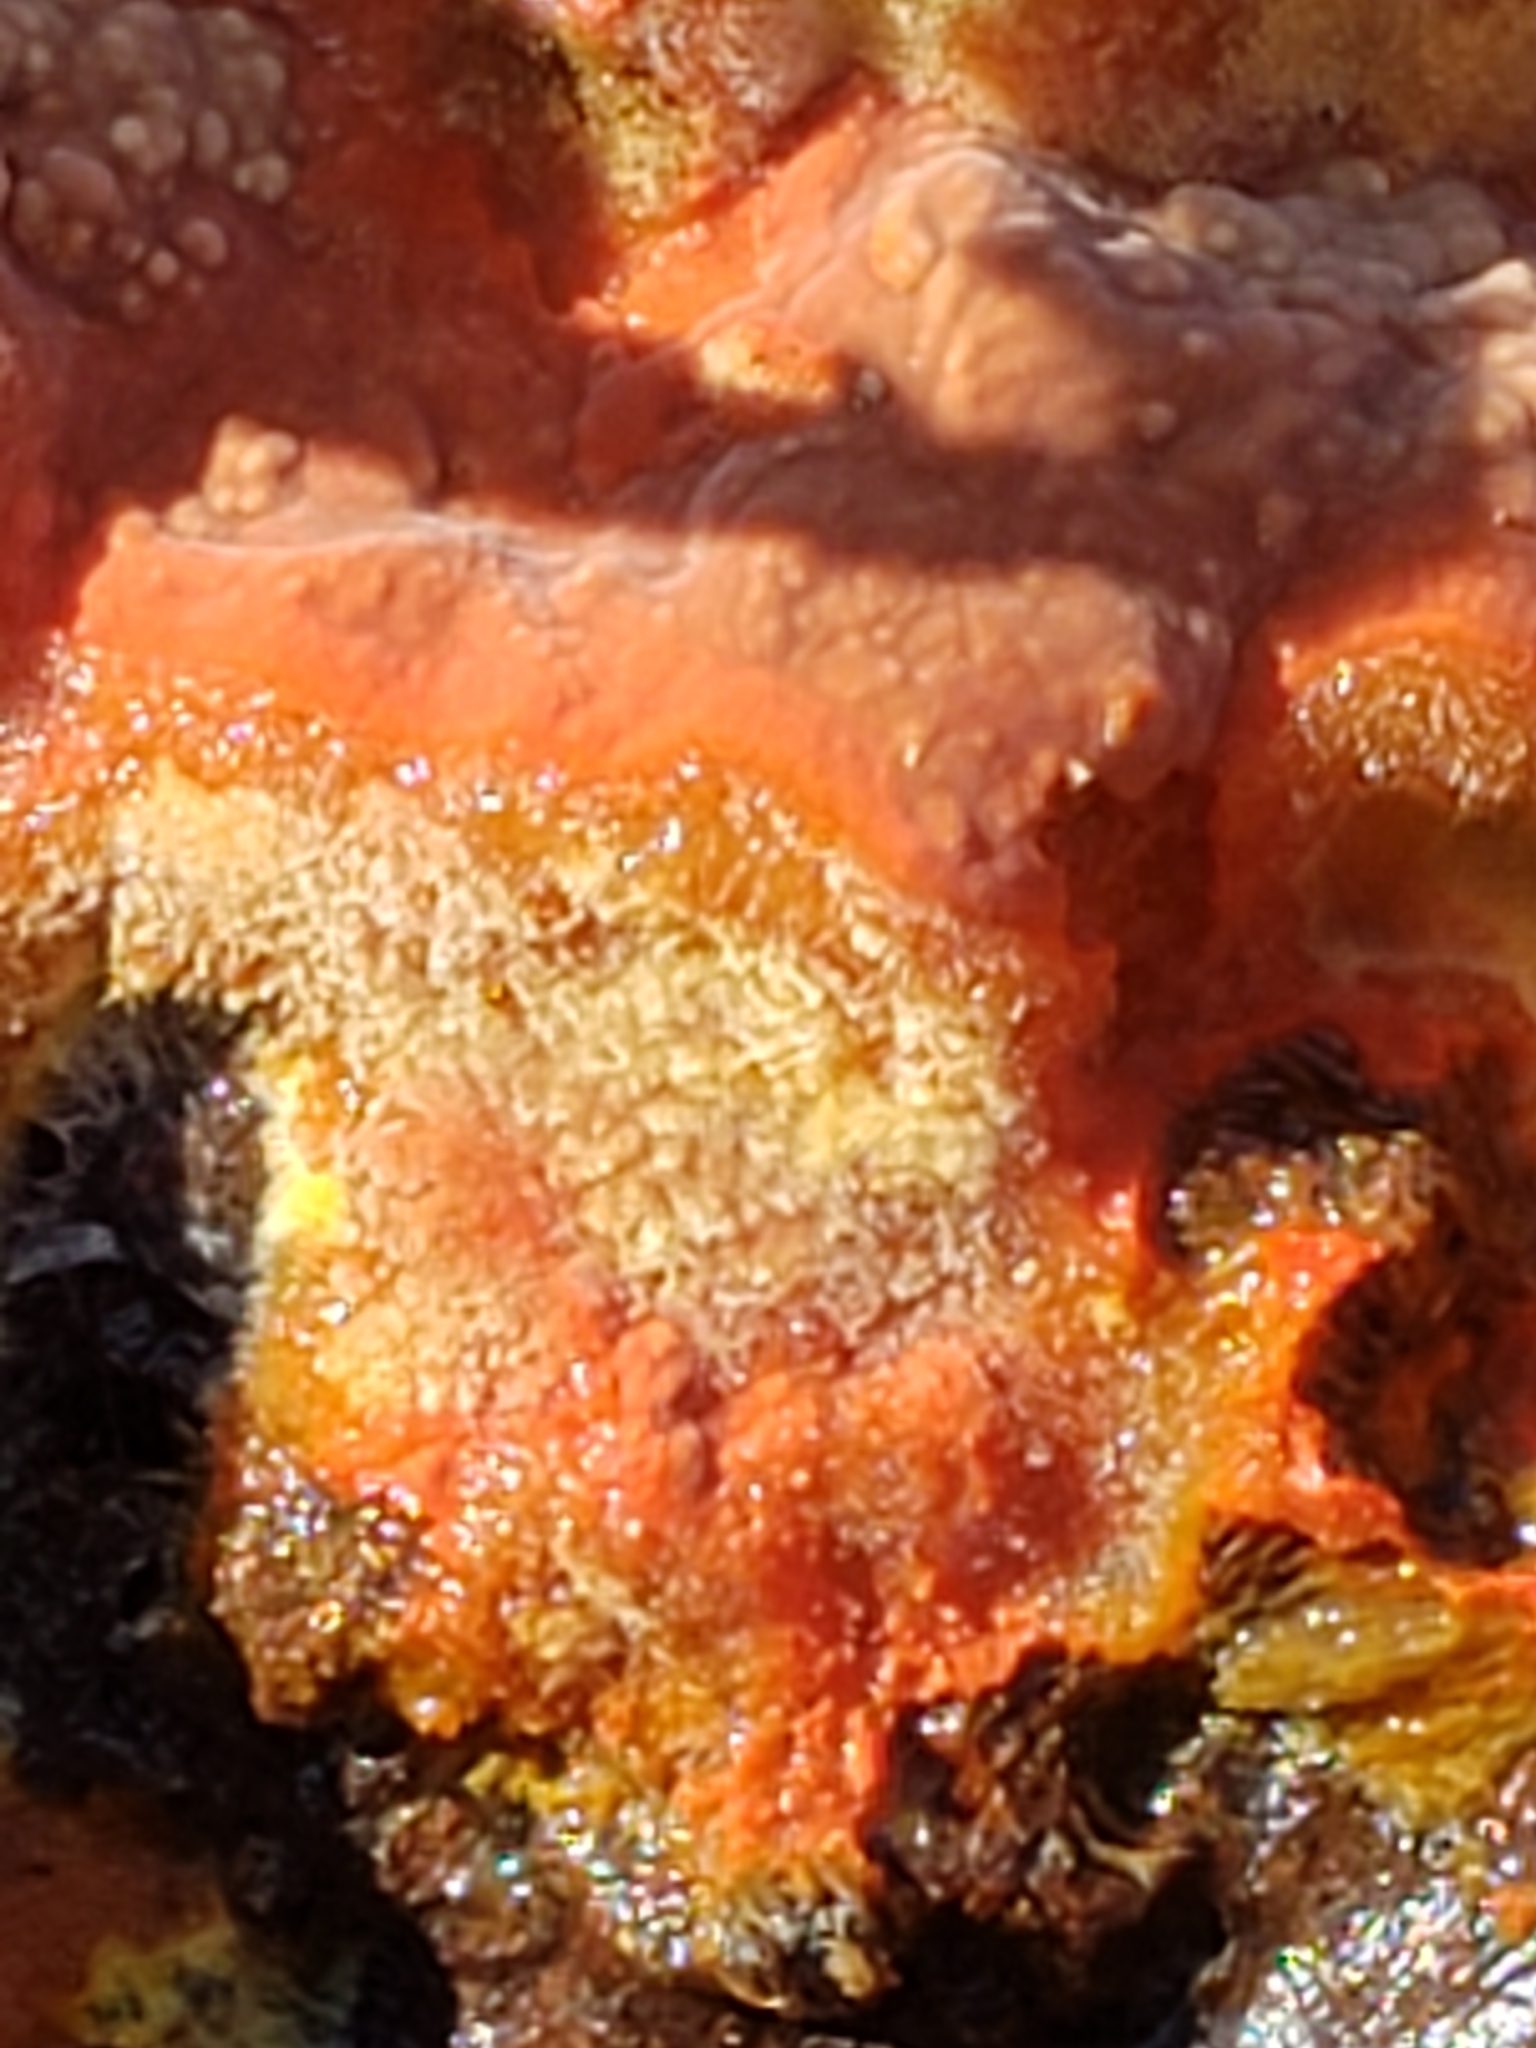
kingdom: Fungi
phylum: Basidiomycota
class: Agaricomycetes
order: Polyporales
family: Meruliaceae
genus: Phlebia
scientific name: Phlebia coccineofulva
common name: Scarlet waxcrust
